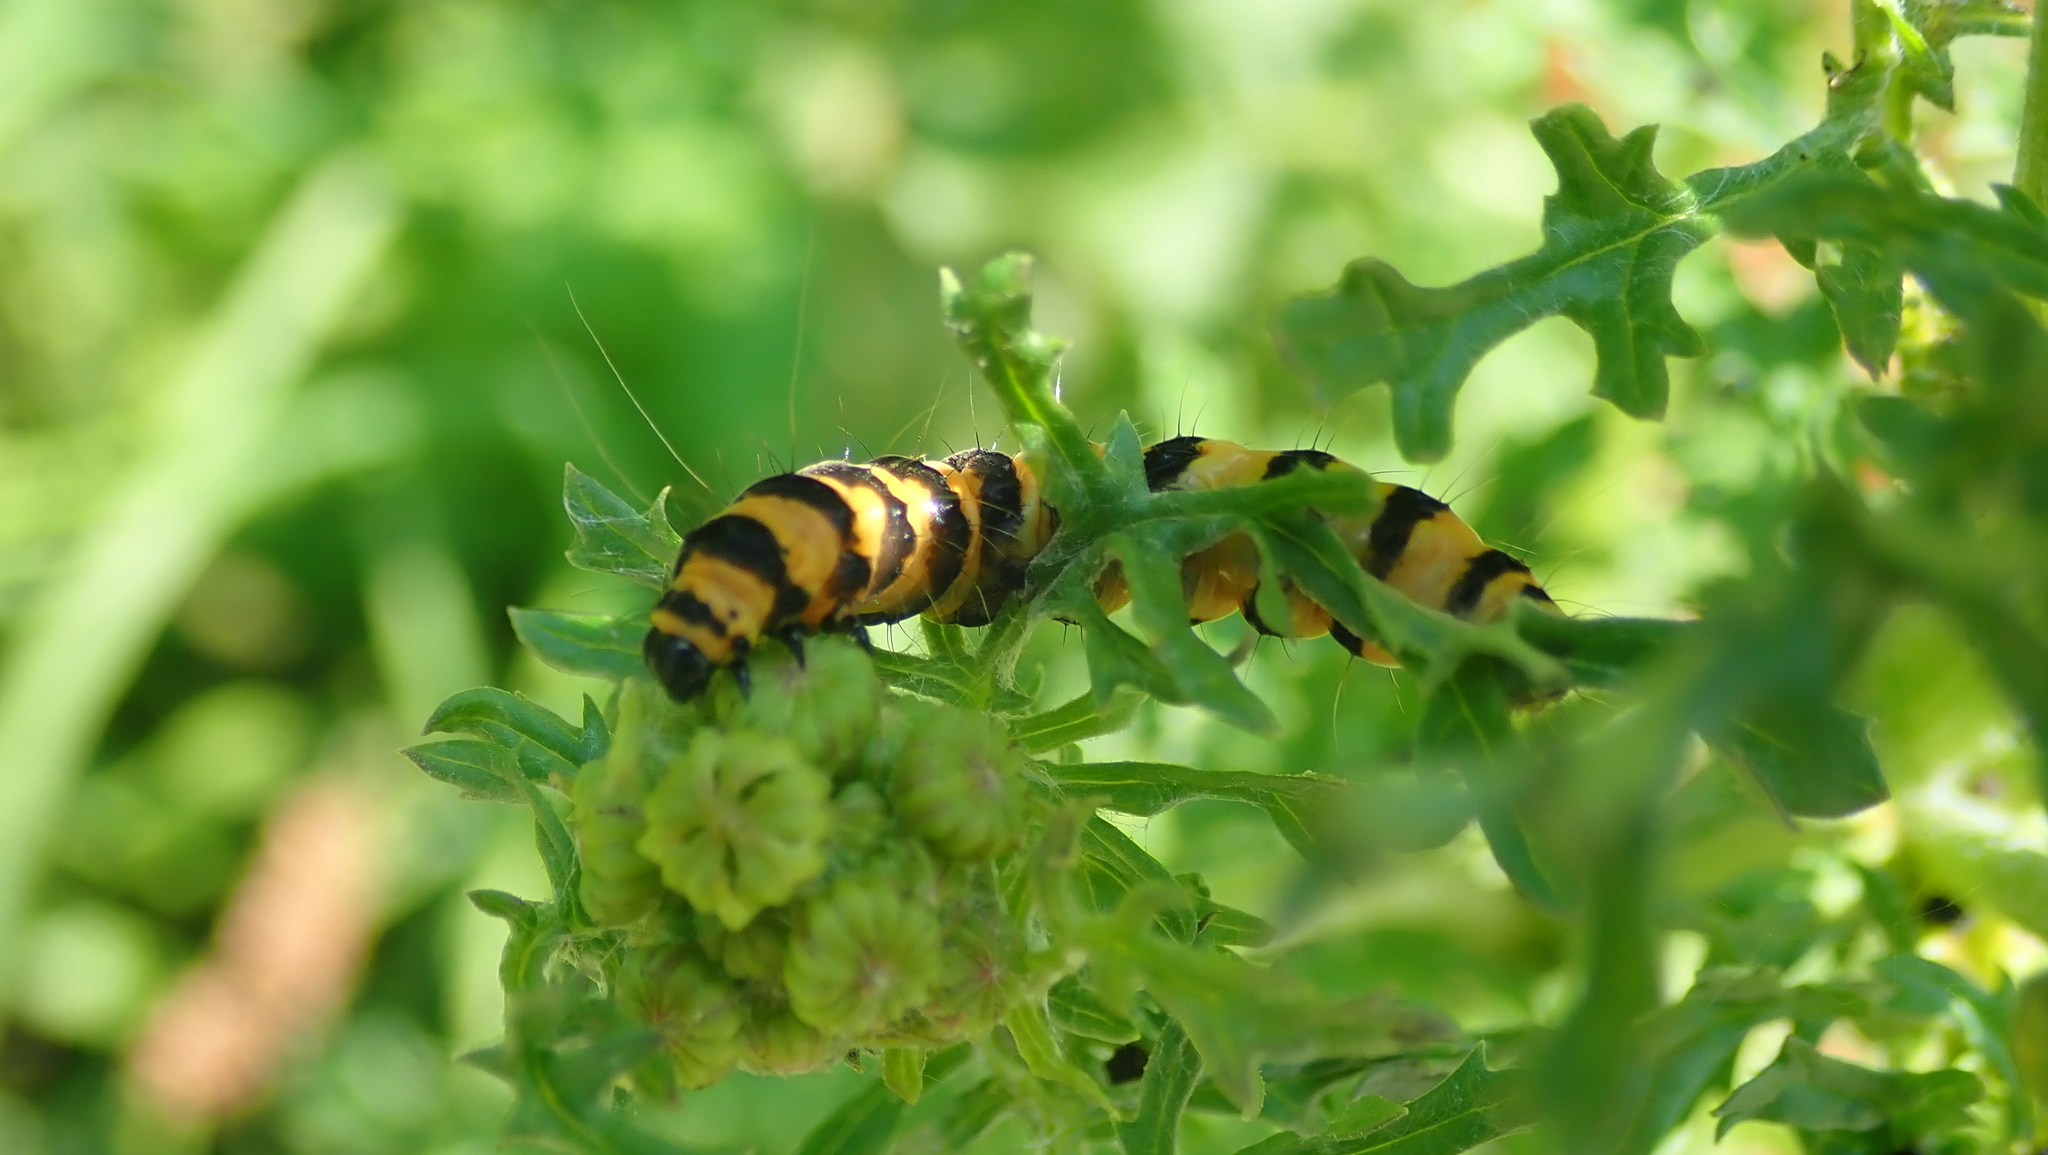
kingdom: Animalia
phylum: Arthropoda
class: Insecta
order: Lepidoptera
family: Erebidae
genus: Tyria
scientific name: Tyria jacobaeae
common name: Cinnabar
